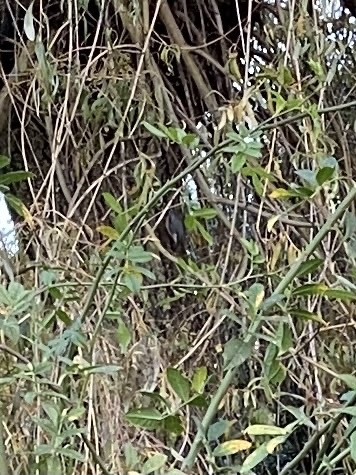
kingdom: Animalia
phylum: Chordata
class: Aves
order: Passeriformes
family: Sittidae
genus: Sitta
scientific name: Sitta europaea
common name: Eurasian nuthatch
